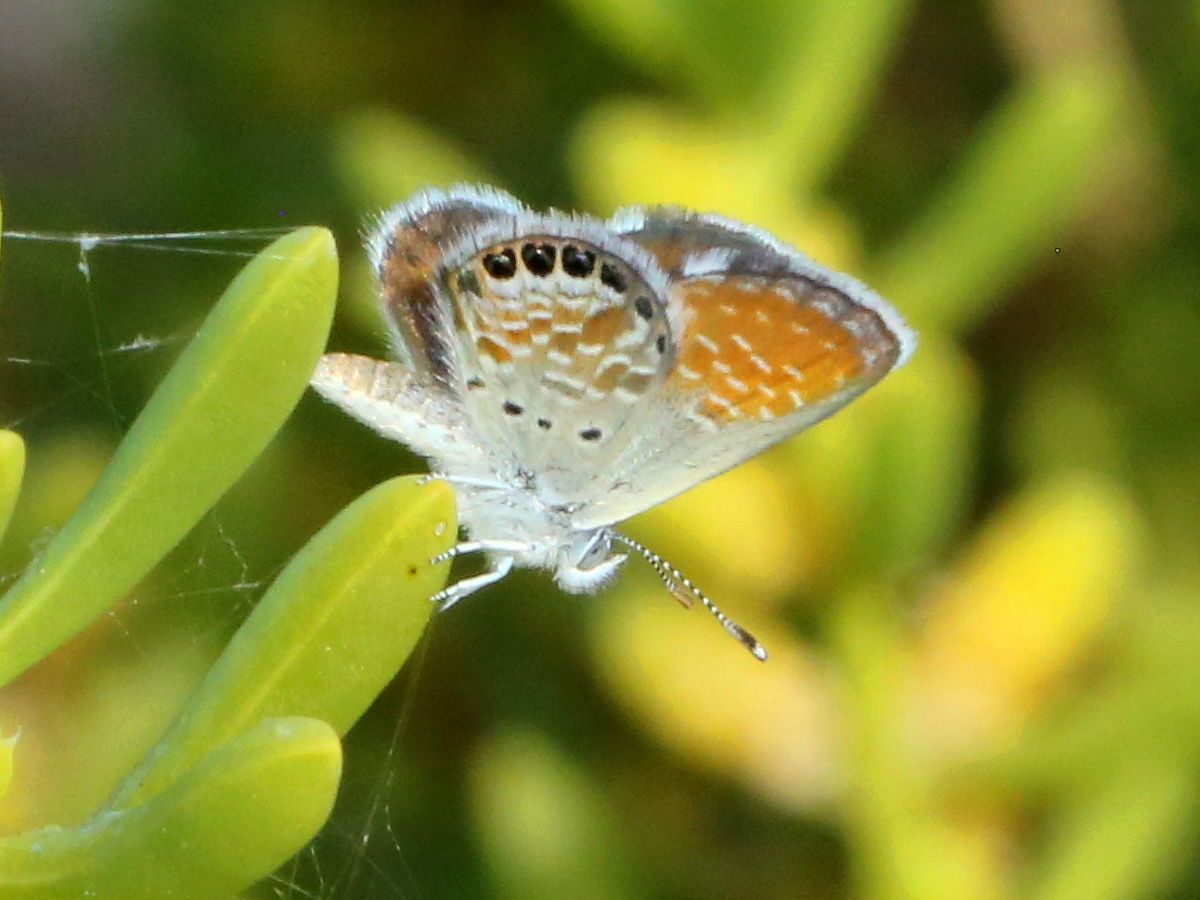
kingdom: Animalia
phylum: Arthropoda
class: Insecta
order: Lepidoptera
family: Lycaenidae
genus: Brephidium
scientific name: Brephidium exilis
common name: Pygmy blue
